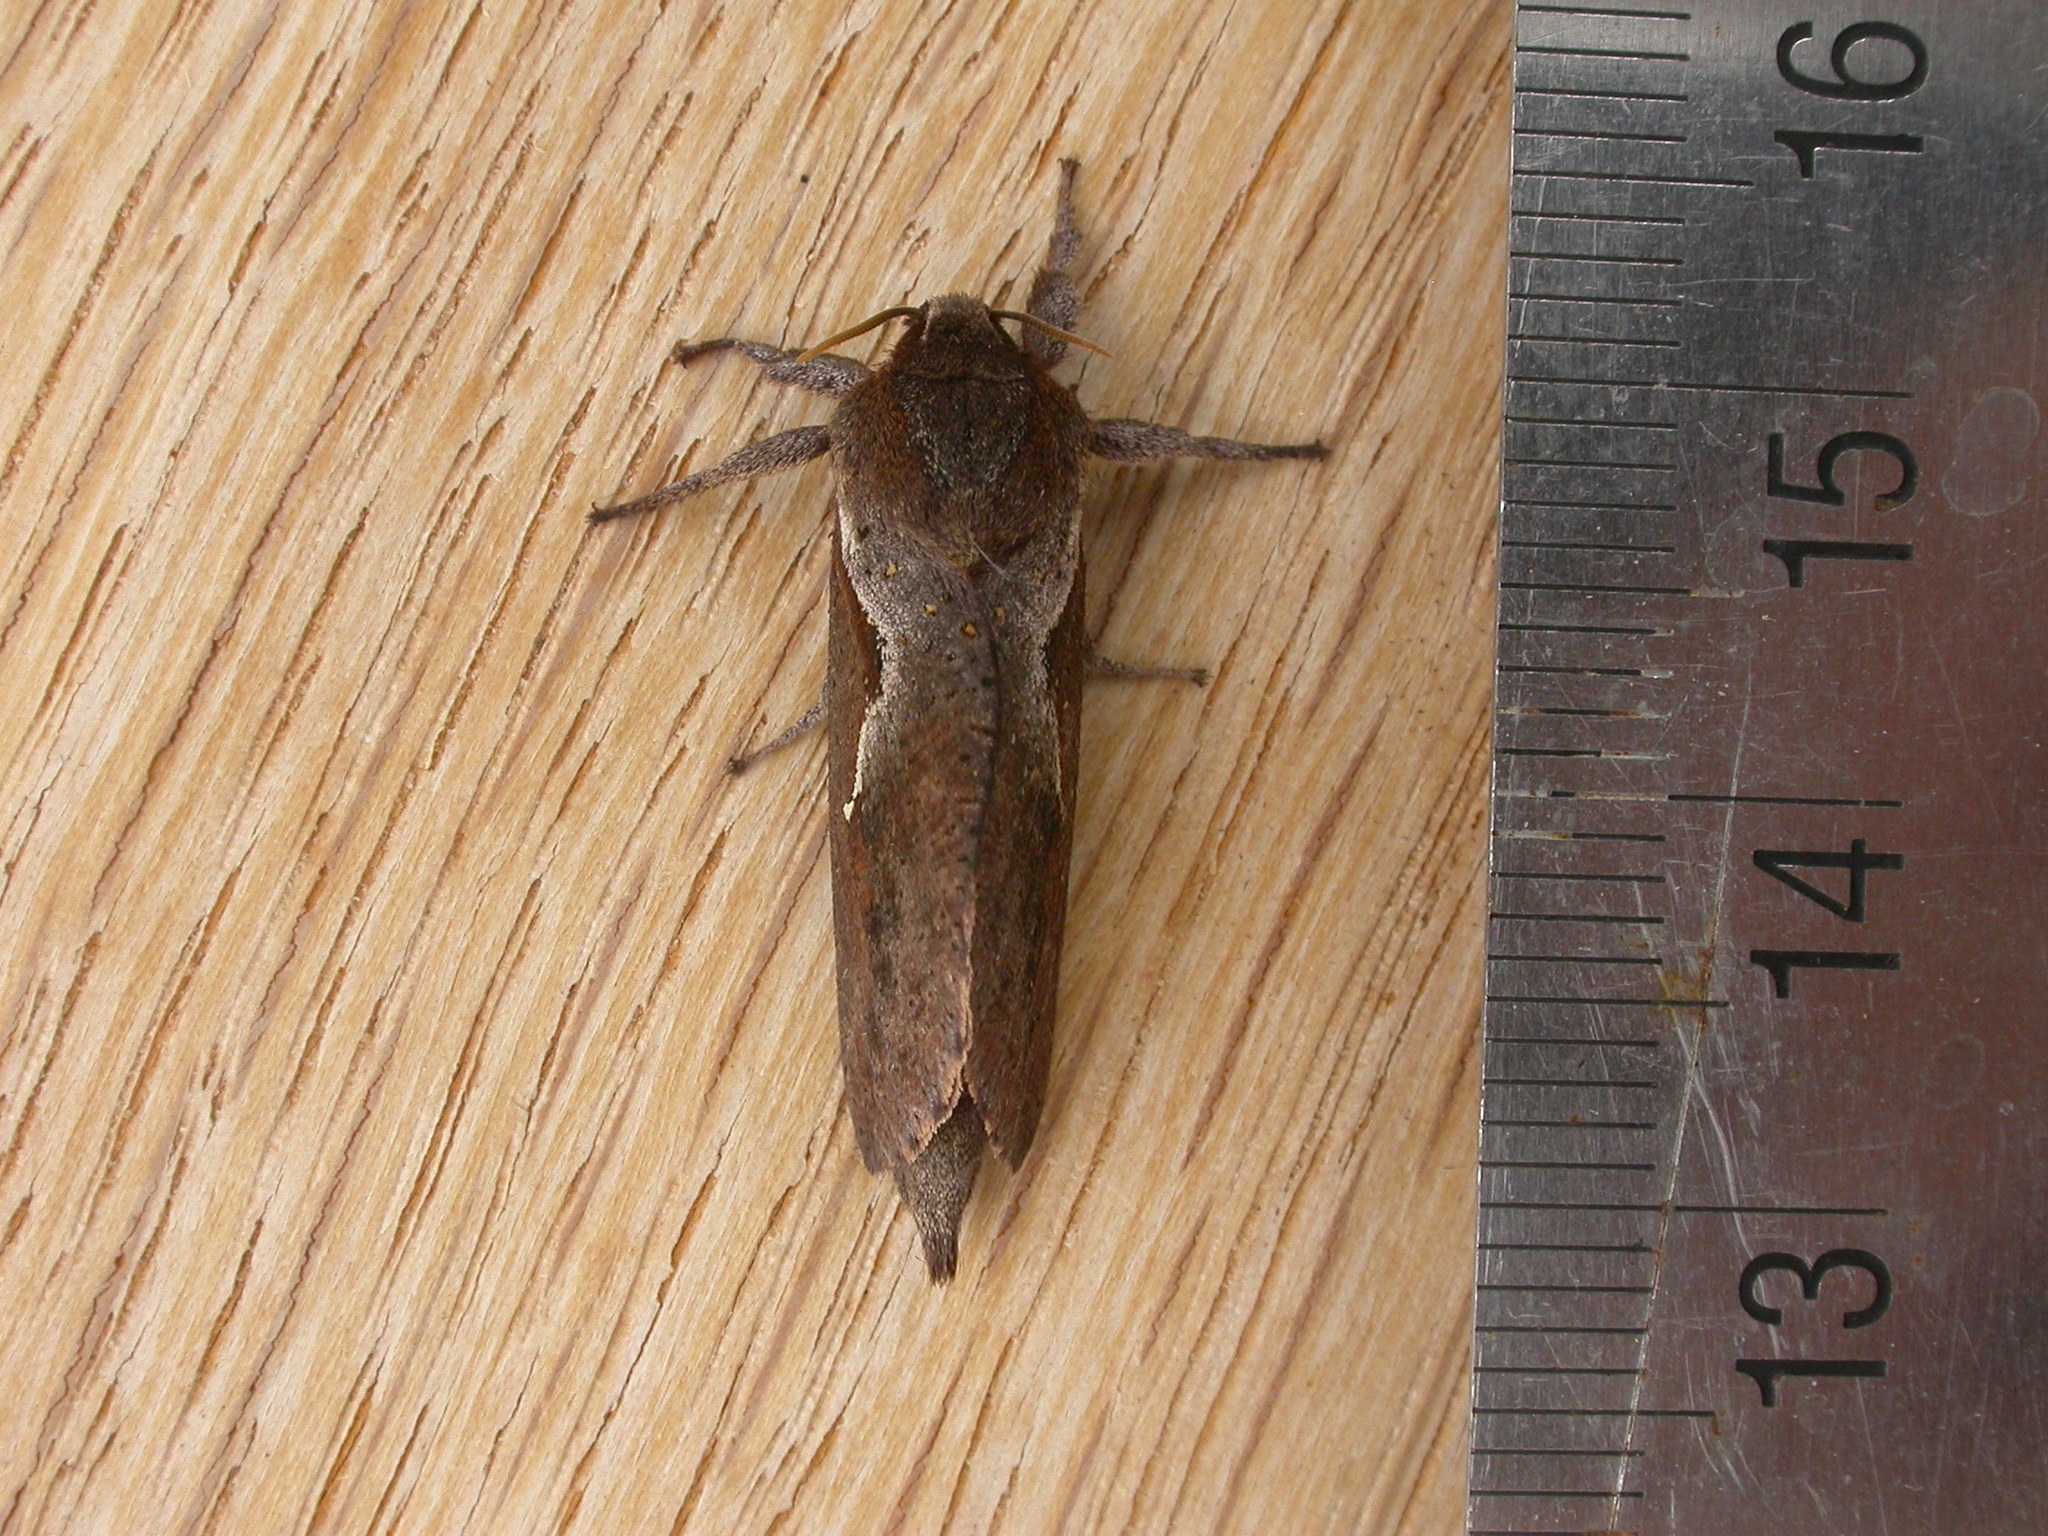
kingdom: Animalia
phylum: Arthropoda
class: Insecta
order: Lepidoptera
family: Hepialidae
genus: Elhamma
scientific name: Elhamma australasiae
